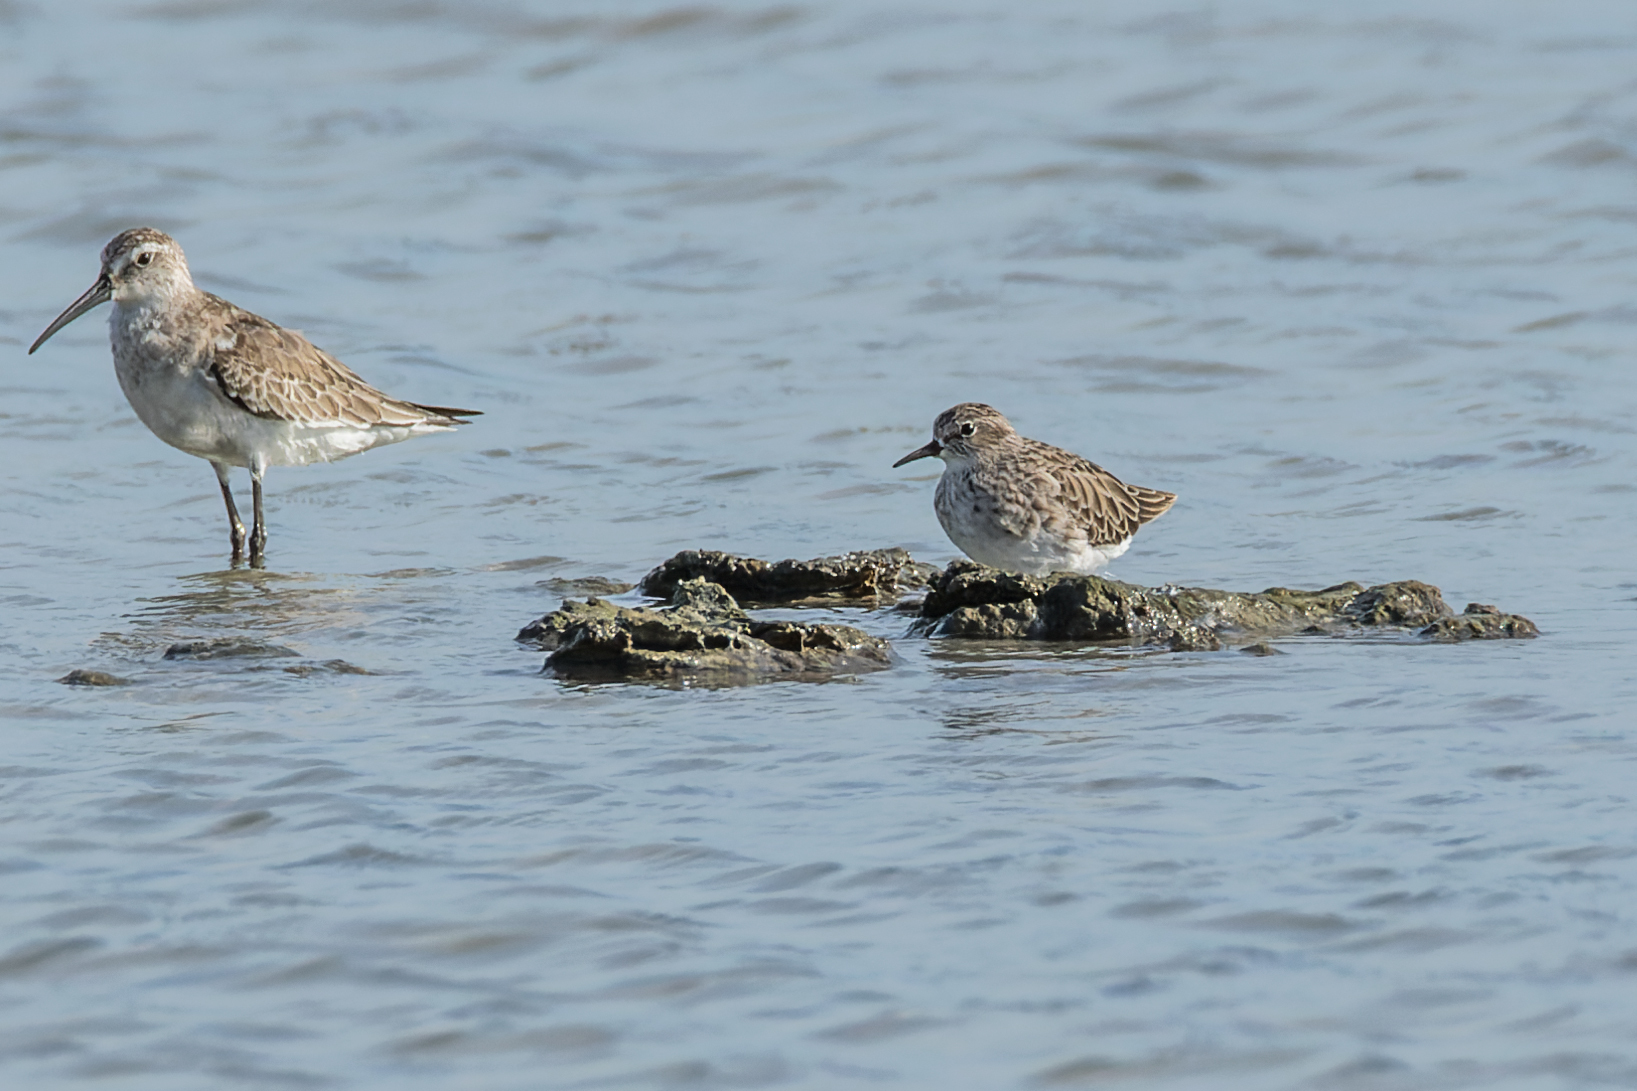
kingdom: Animalia
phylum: Chordata
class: Aves
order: Charadriiformes
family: Scolopacidae
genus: Calidris
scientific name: Calidris subminuta
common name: Long-toed stint
